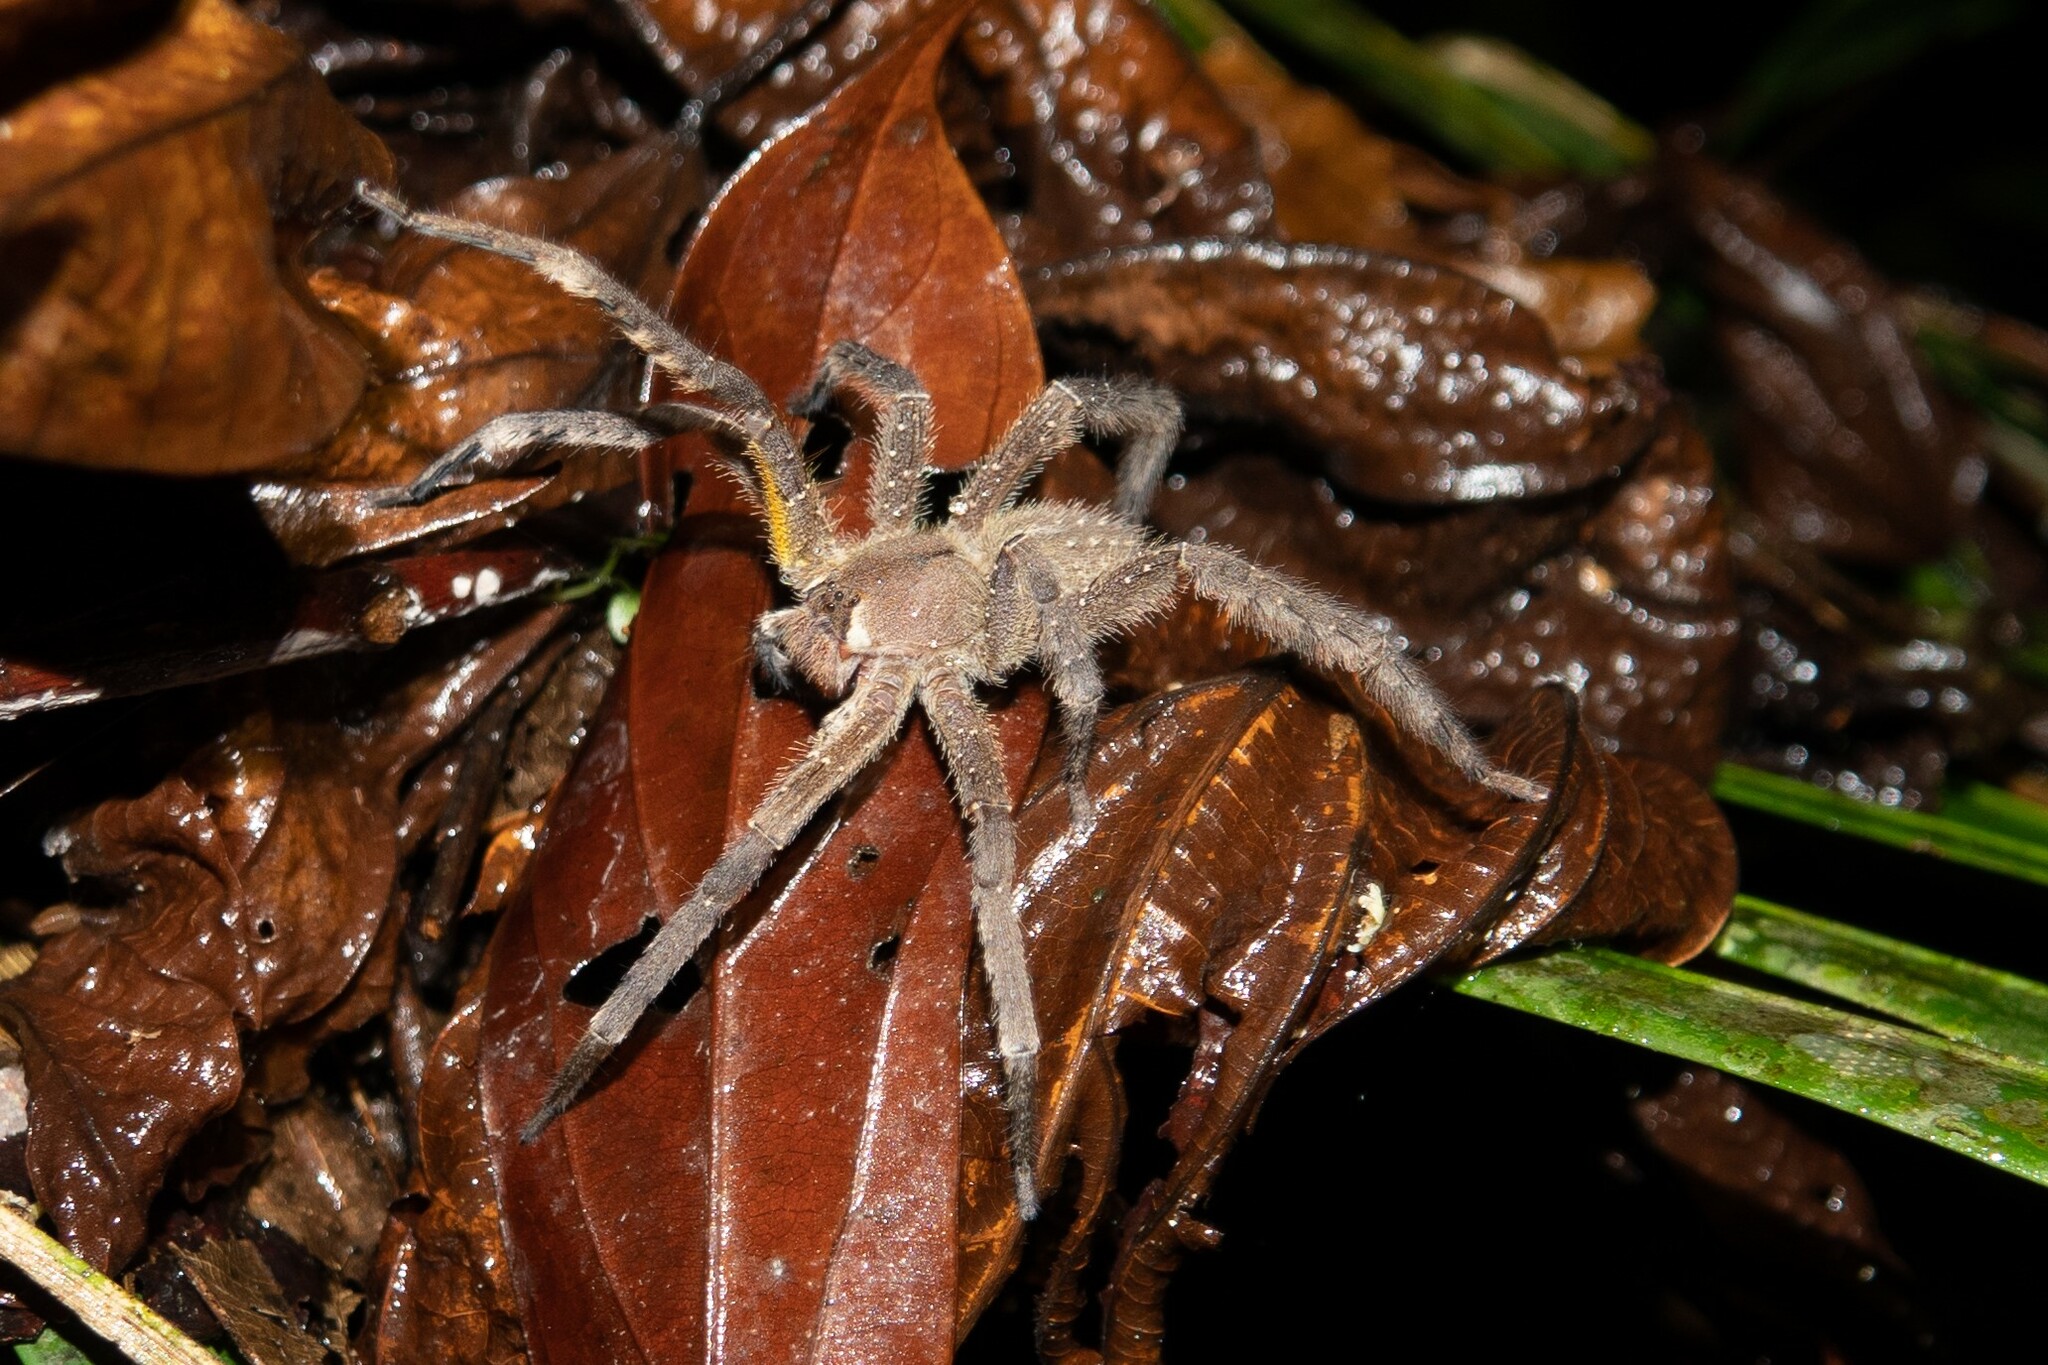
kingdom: Animalia
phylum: Arthropoda
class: Arachnida
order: Araneae
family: Ctenidae
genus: Phoneutria
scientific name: Phoneutria boliviensis
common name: Wandering spiders
